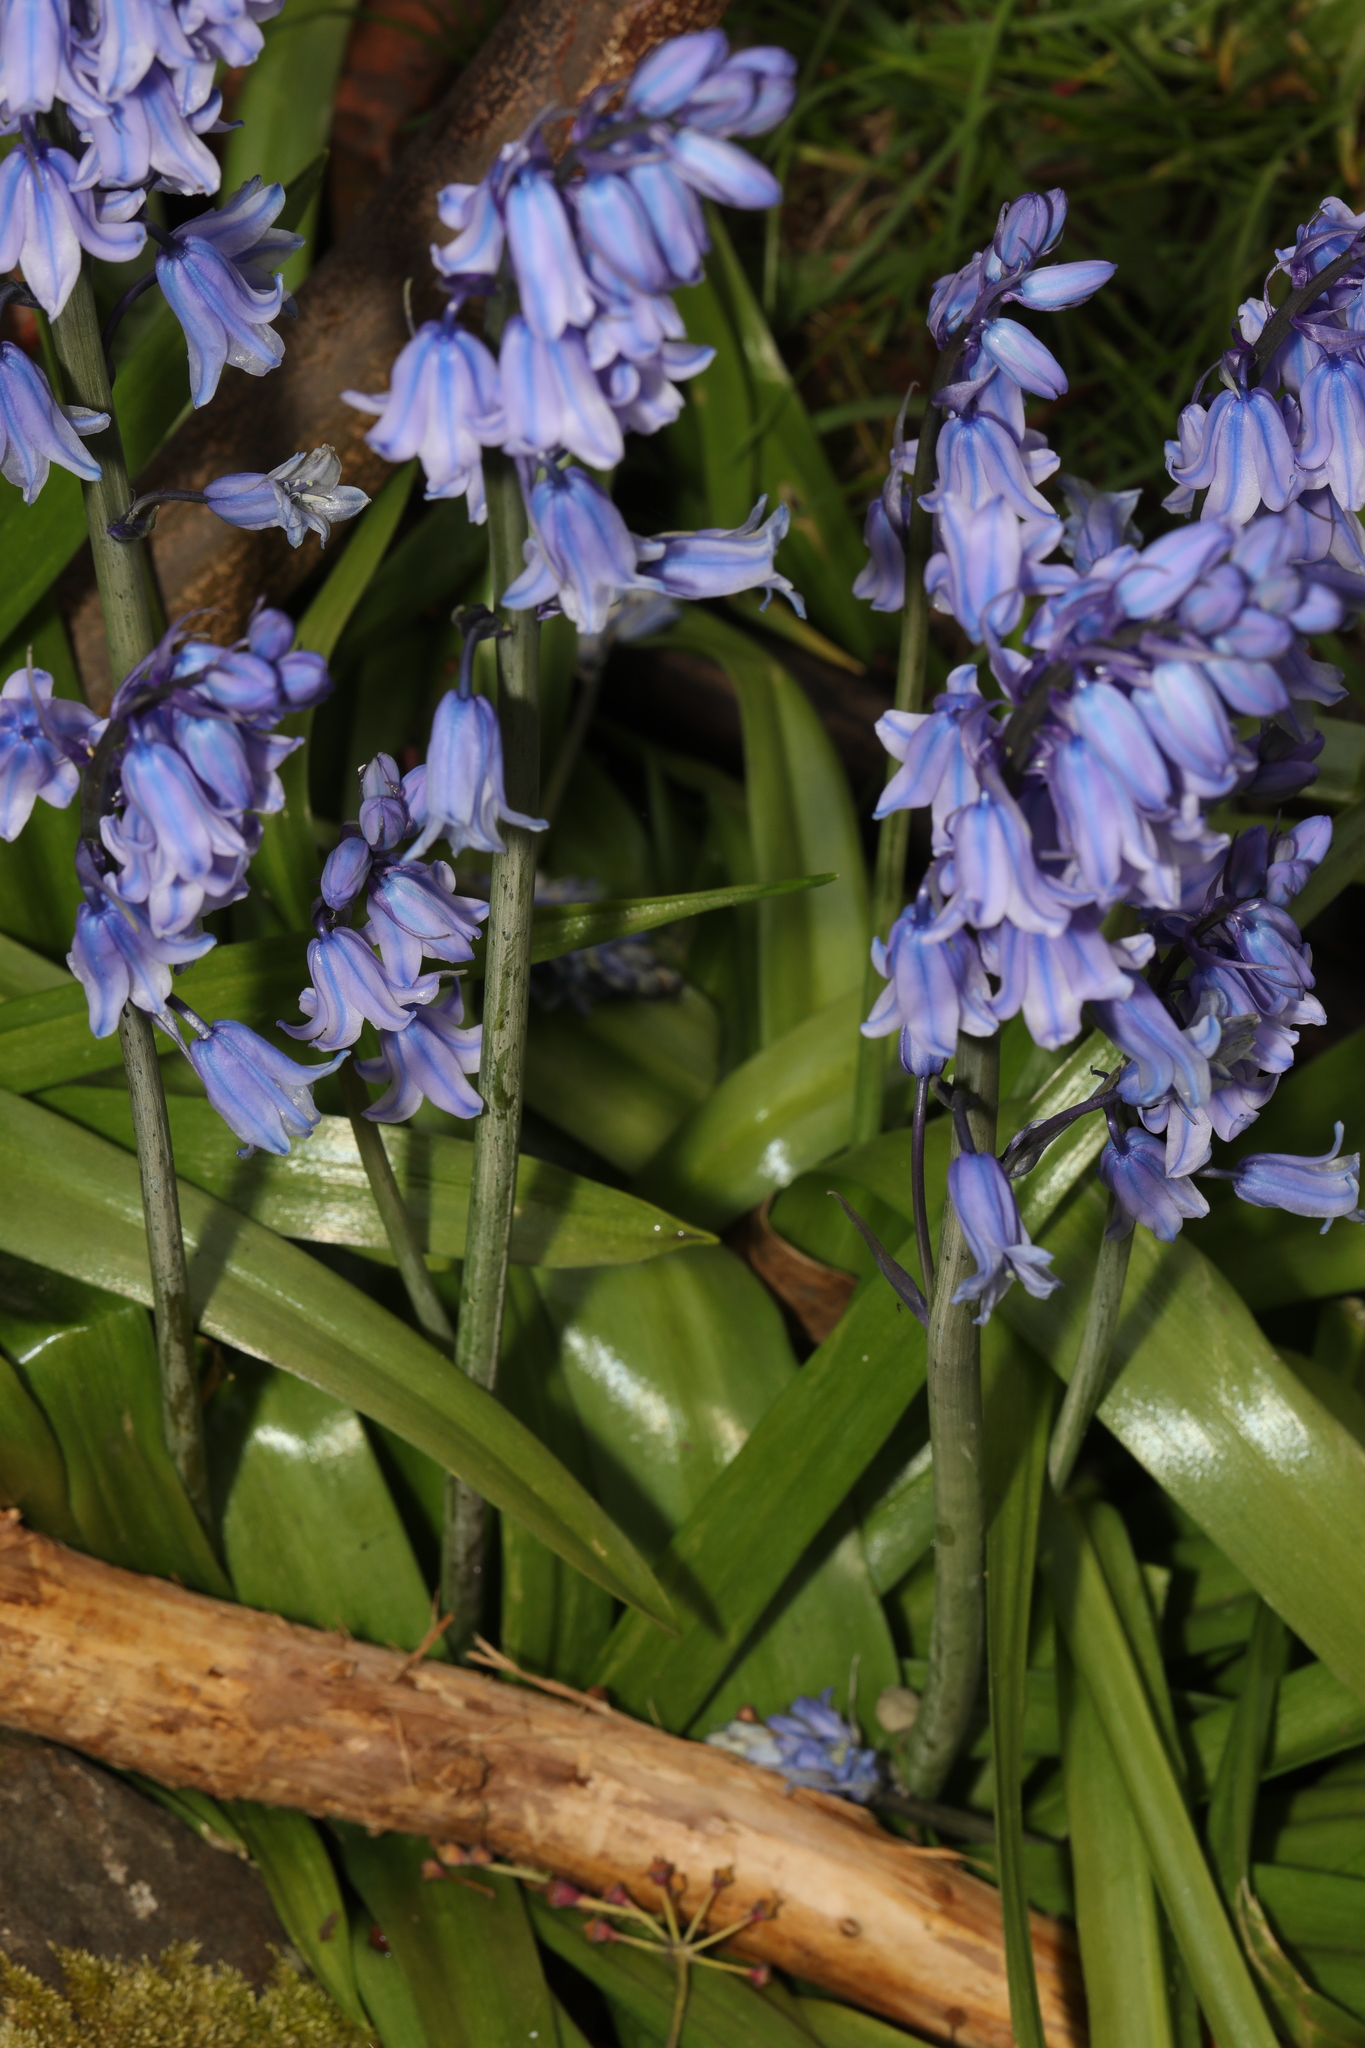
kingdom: Plantae
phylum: Tracheophyta
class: Liliopsida
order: Asparagales
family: Asparagaceae
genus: Hyacinthoides
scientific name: Hyacinthoides hispanica
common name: Spanish bluebell
